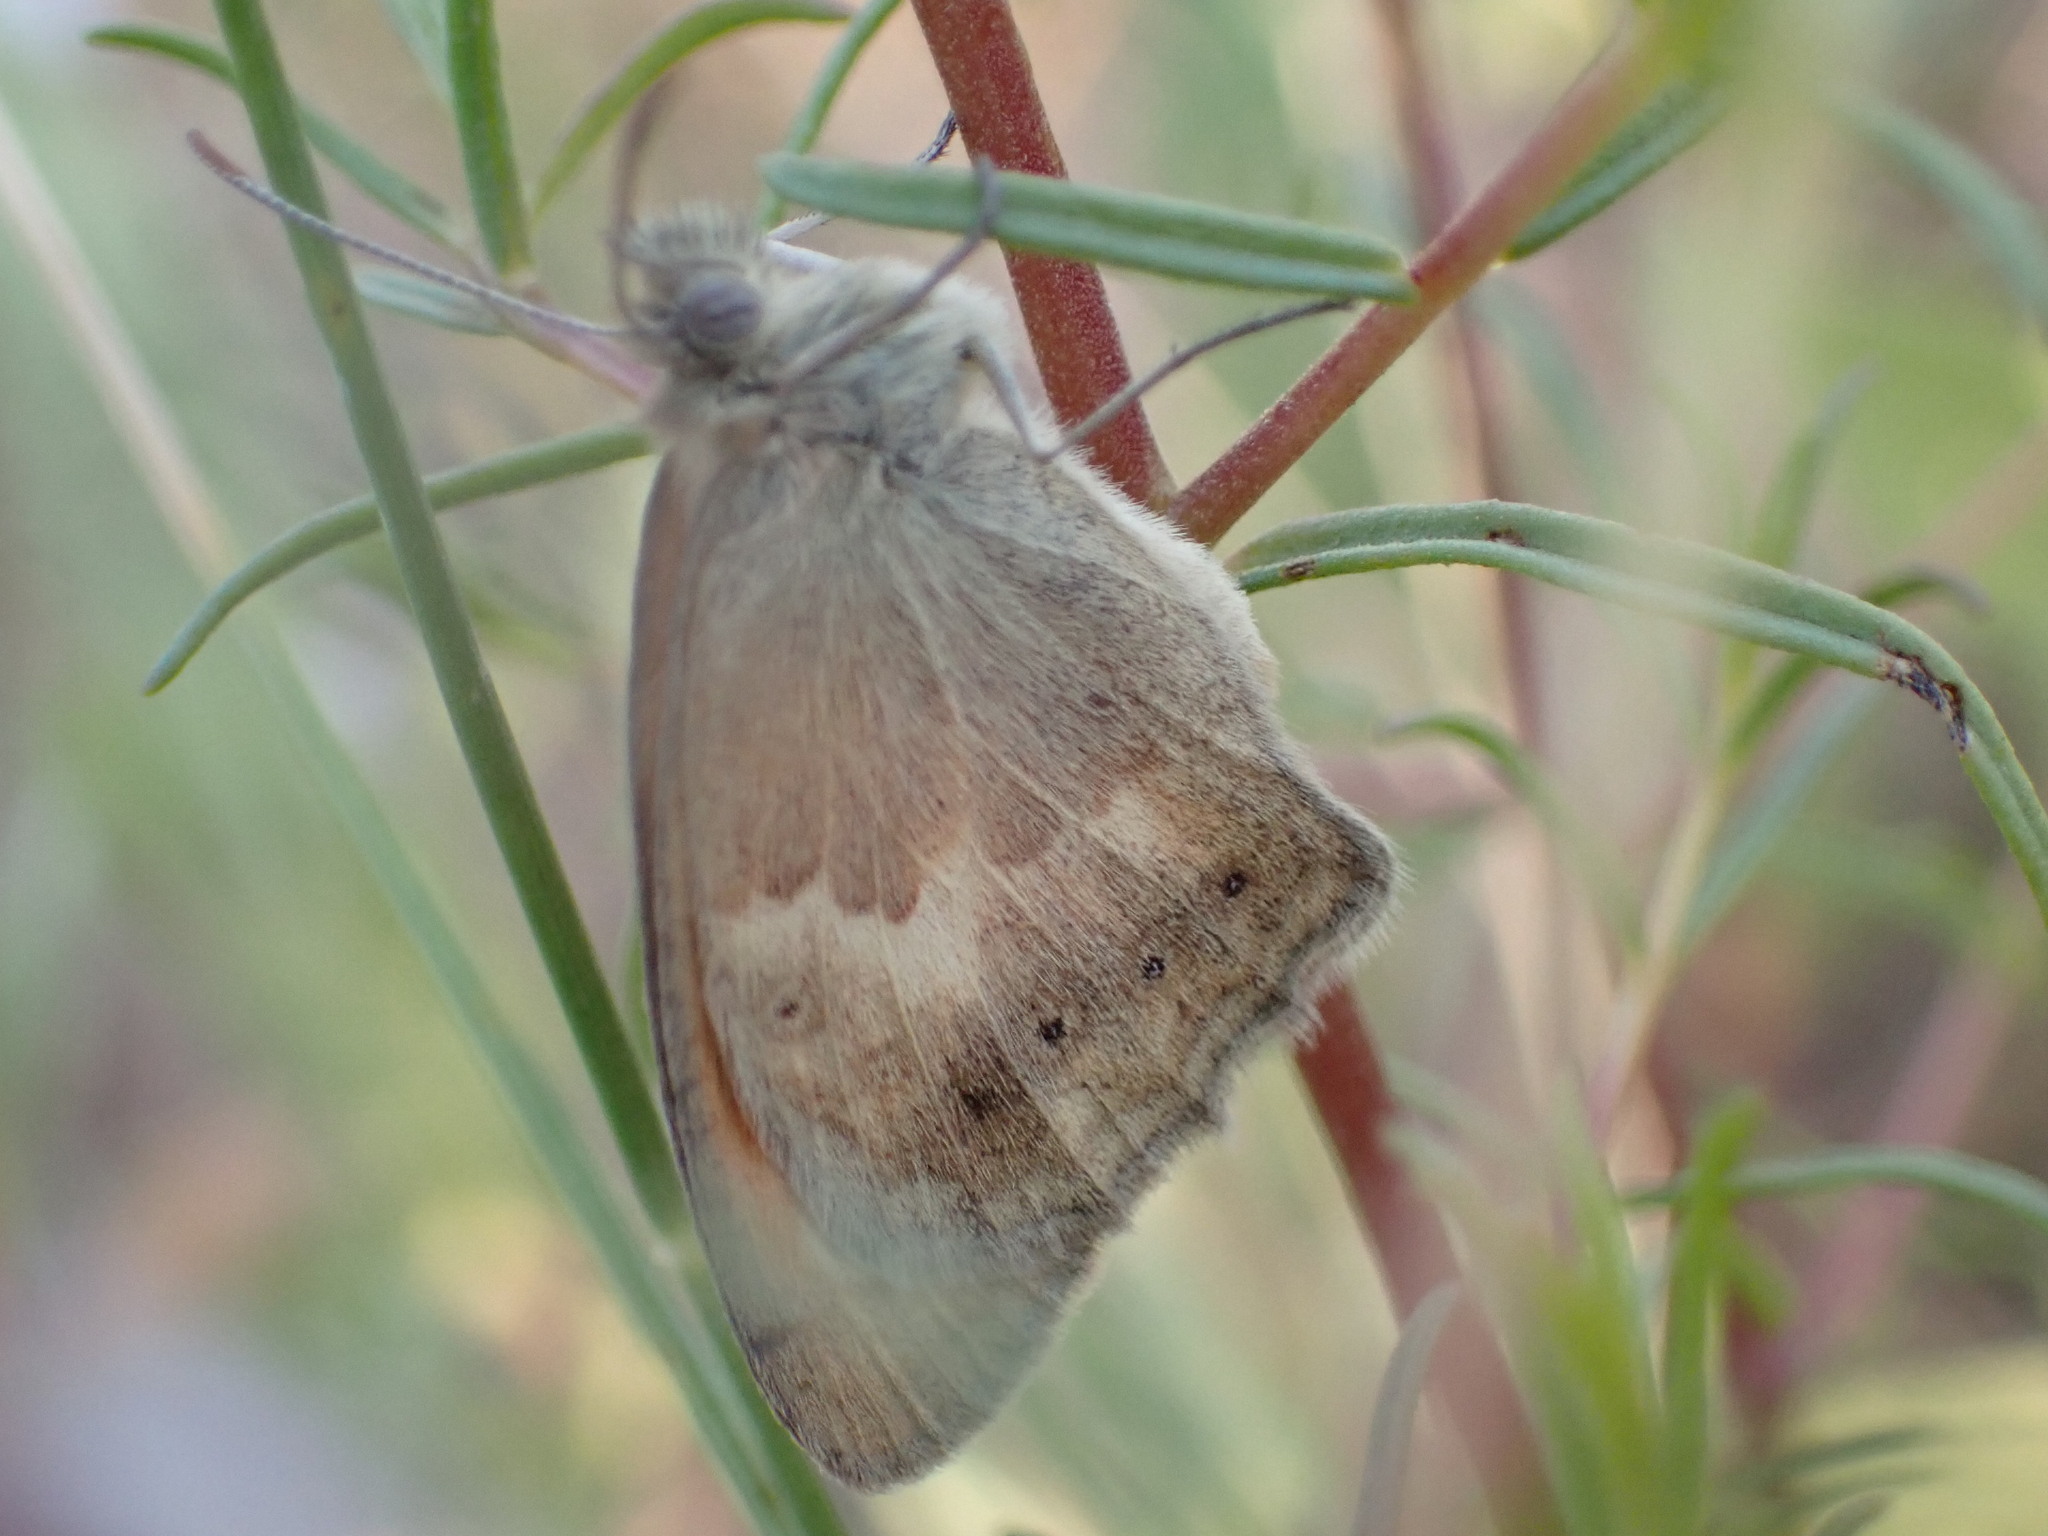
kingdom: Animalia
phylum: Arthropoda
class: Insecta
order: Lepidoptera
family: Nymphalidae
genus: Coenonympha
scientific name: Coenonympha pamphilus
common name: Small heath
